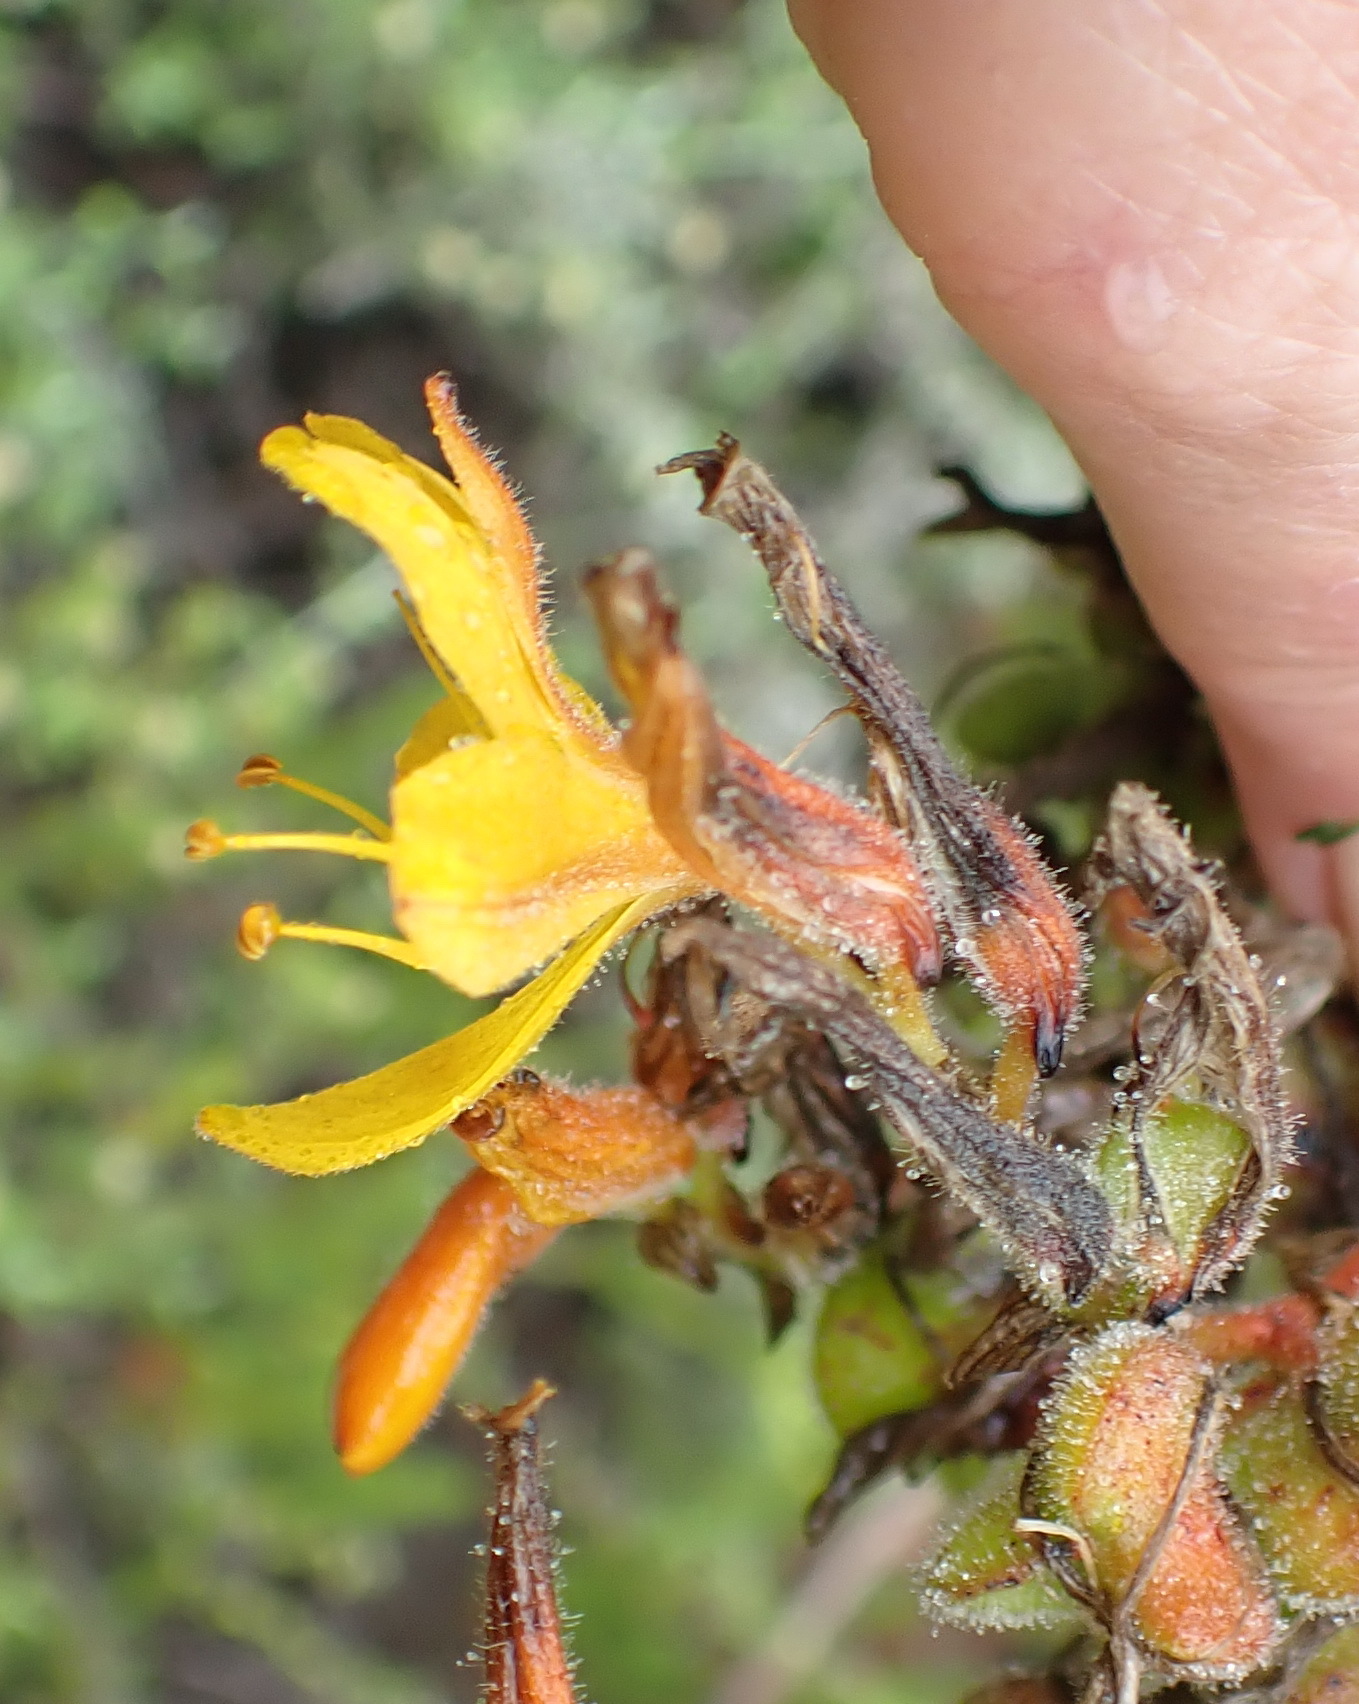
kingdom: Plantae
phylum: Tracheophyta
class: Liliopsida
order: Commelinales
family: Haemodoraceae
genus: Wachendorfia
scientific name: Wachendorfia thyrsiflora
